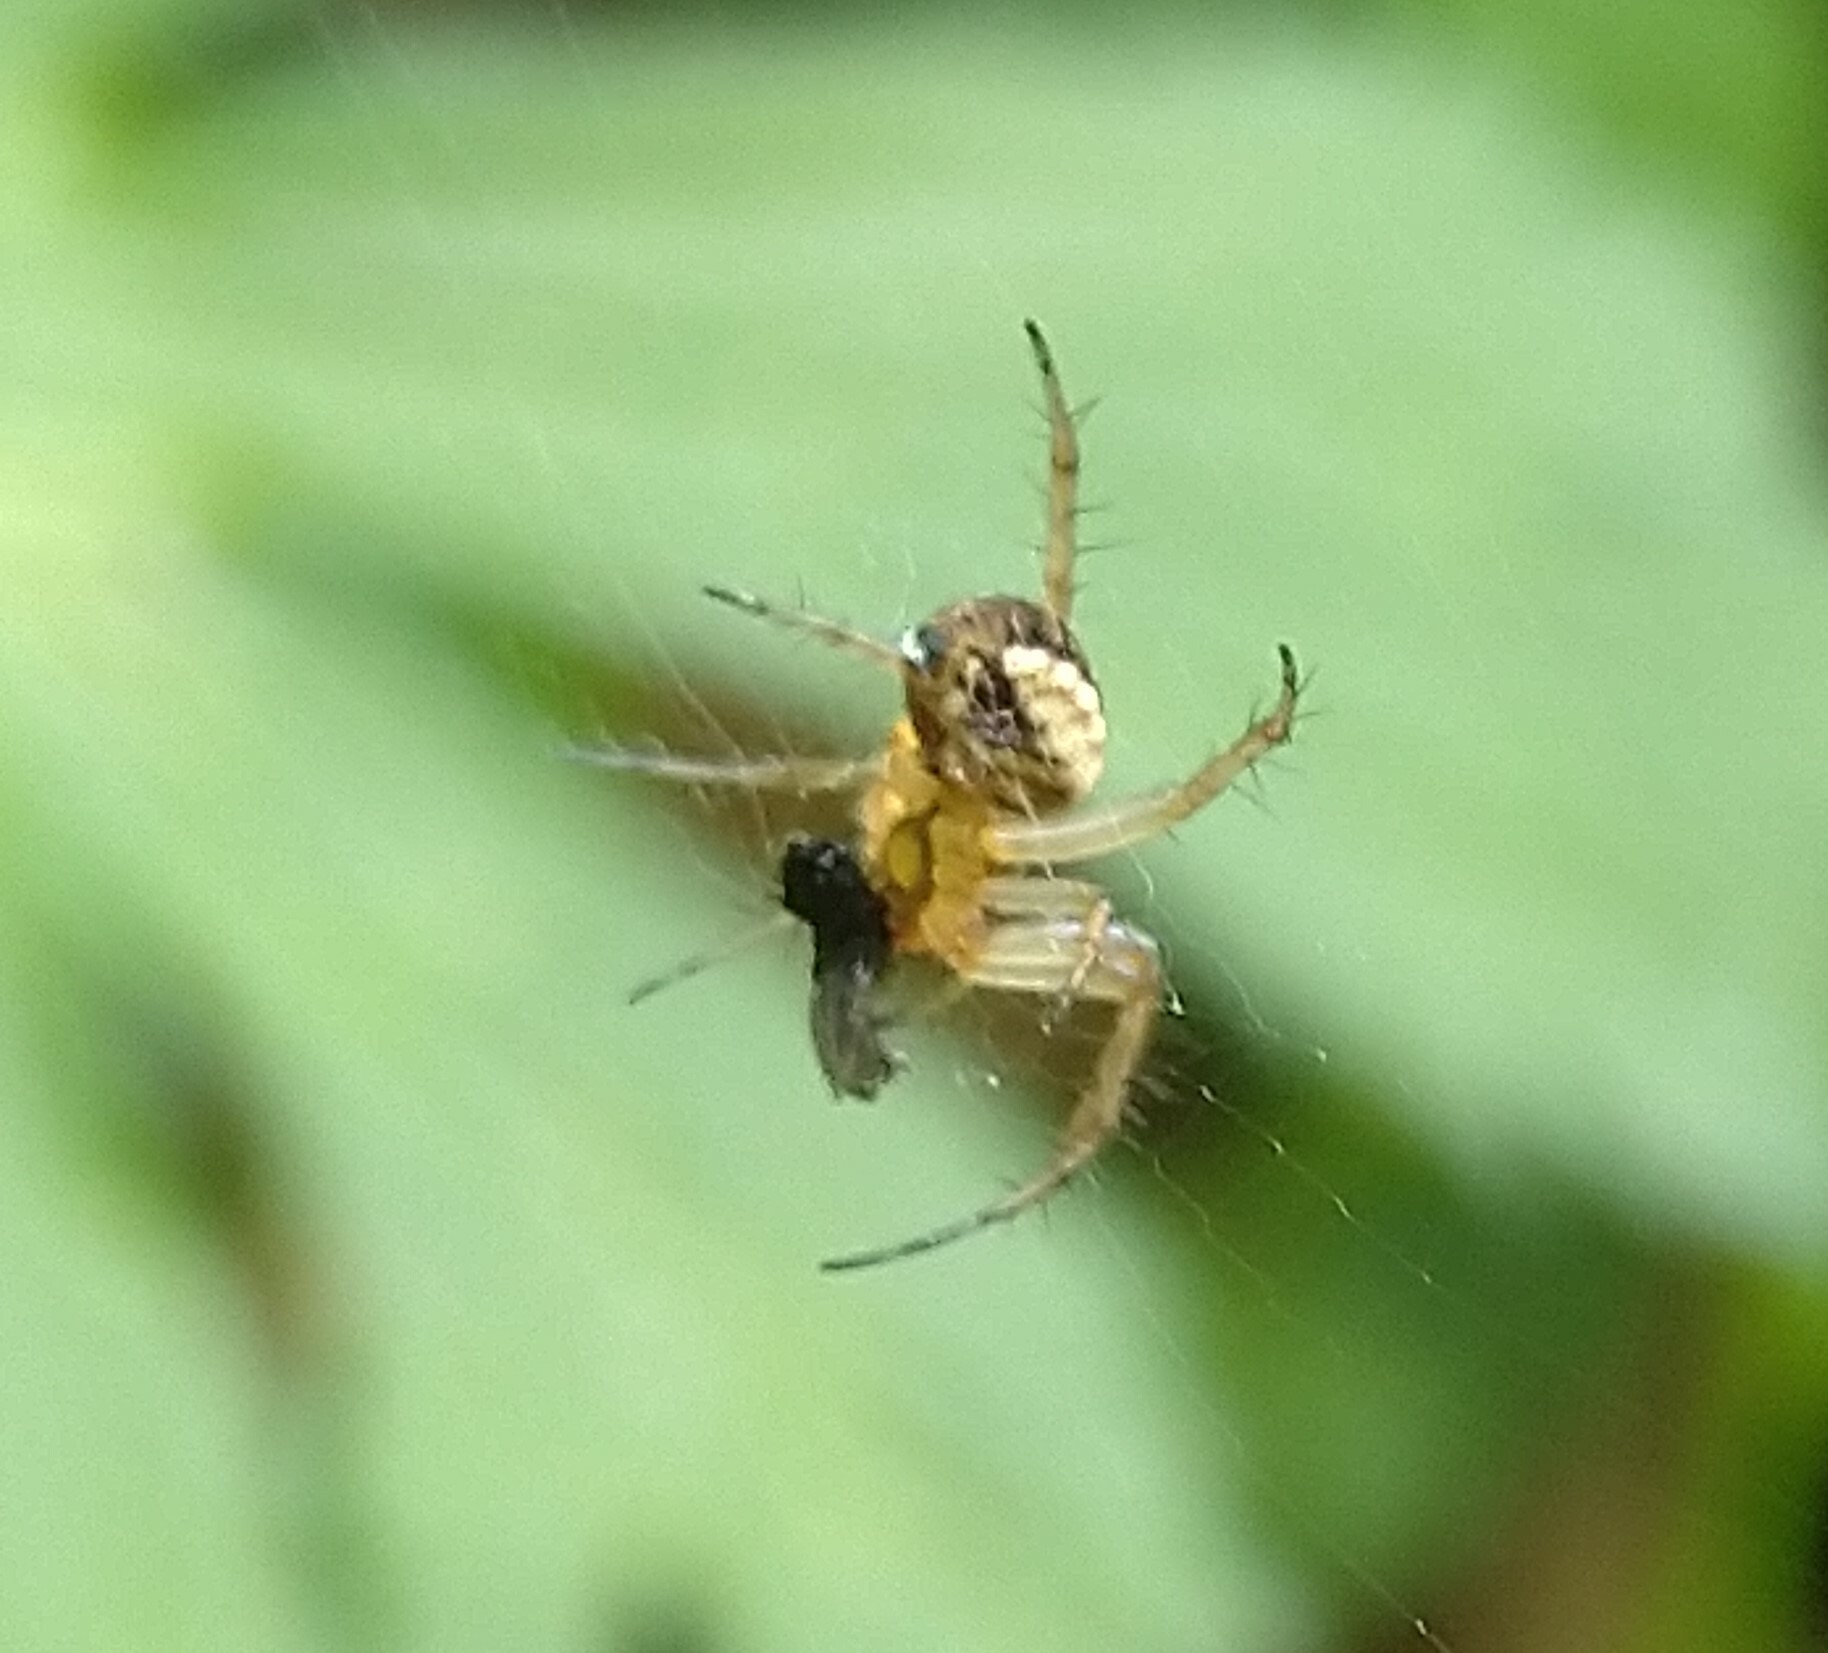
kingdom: Animalia
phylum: Arthropoda
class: Arachnida
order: Araneae
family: Araneidae
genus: Mangora
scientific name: Mangora placida
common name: Tuft-legged orbweaver
